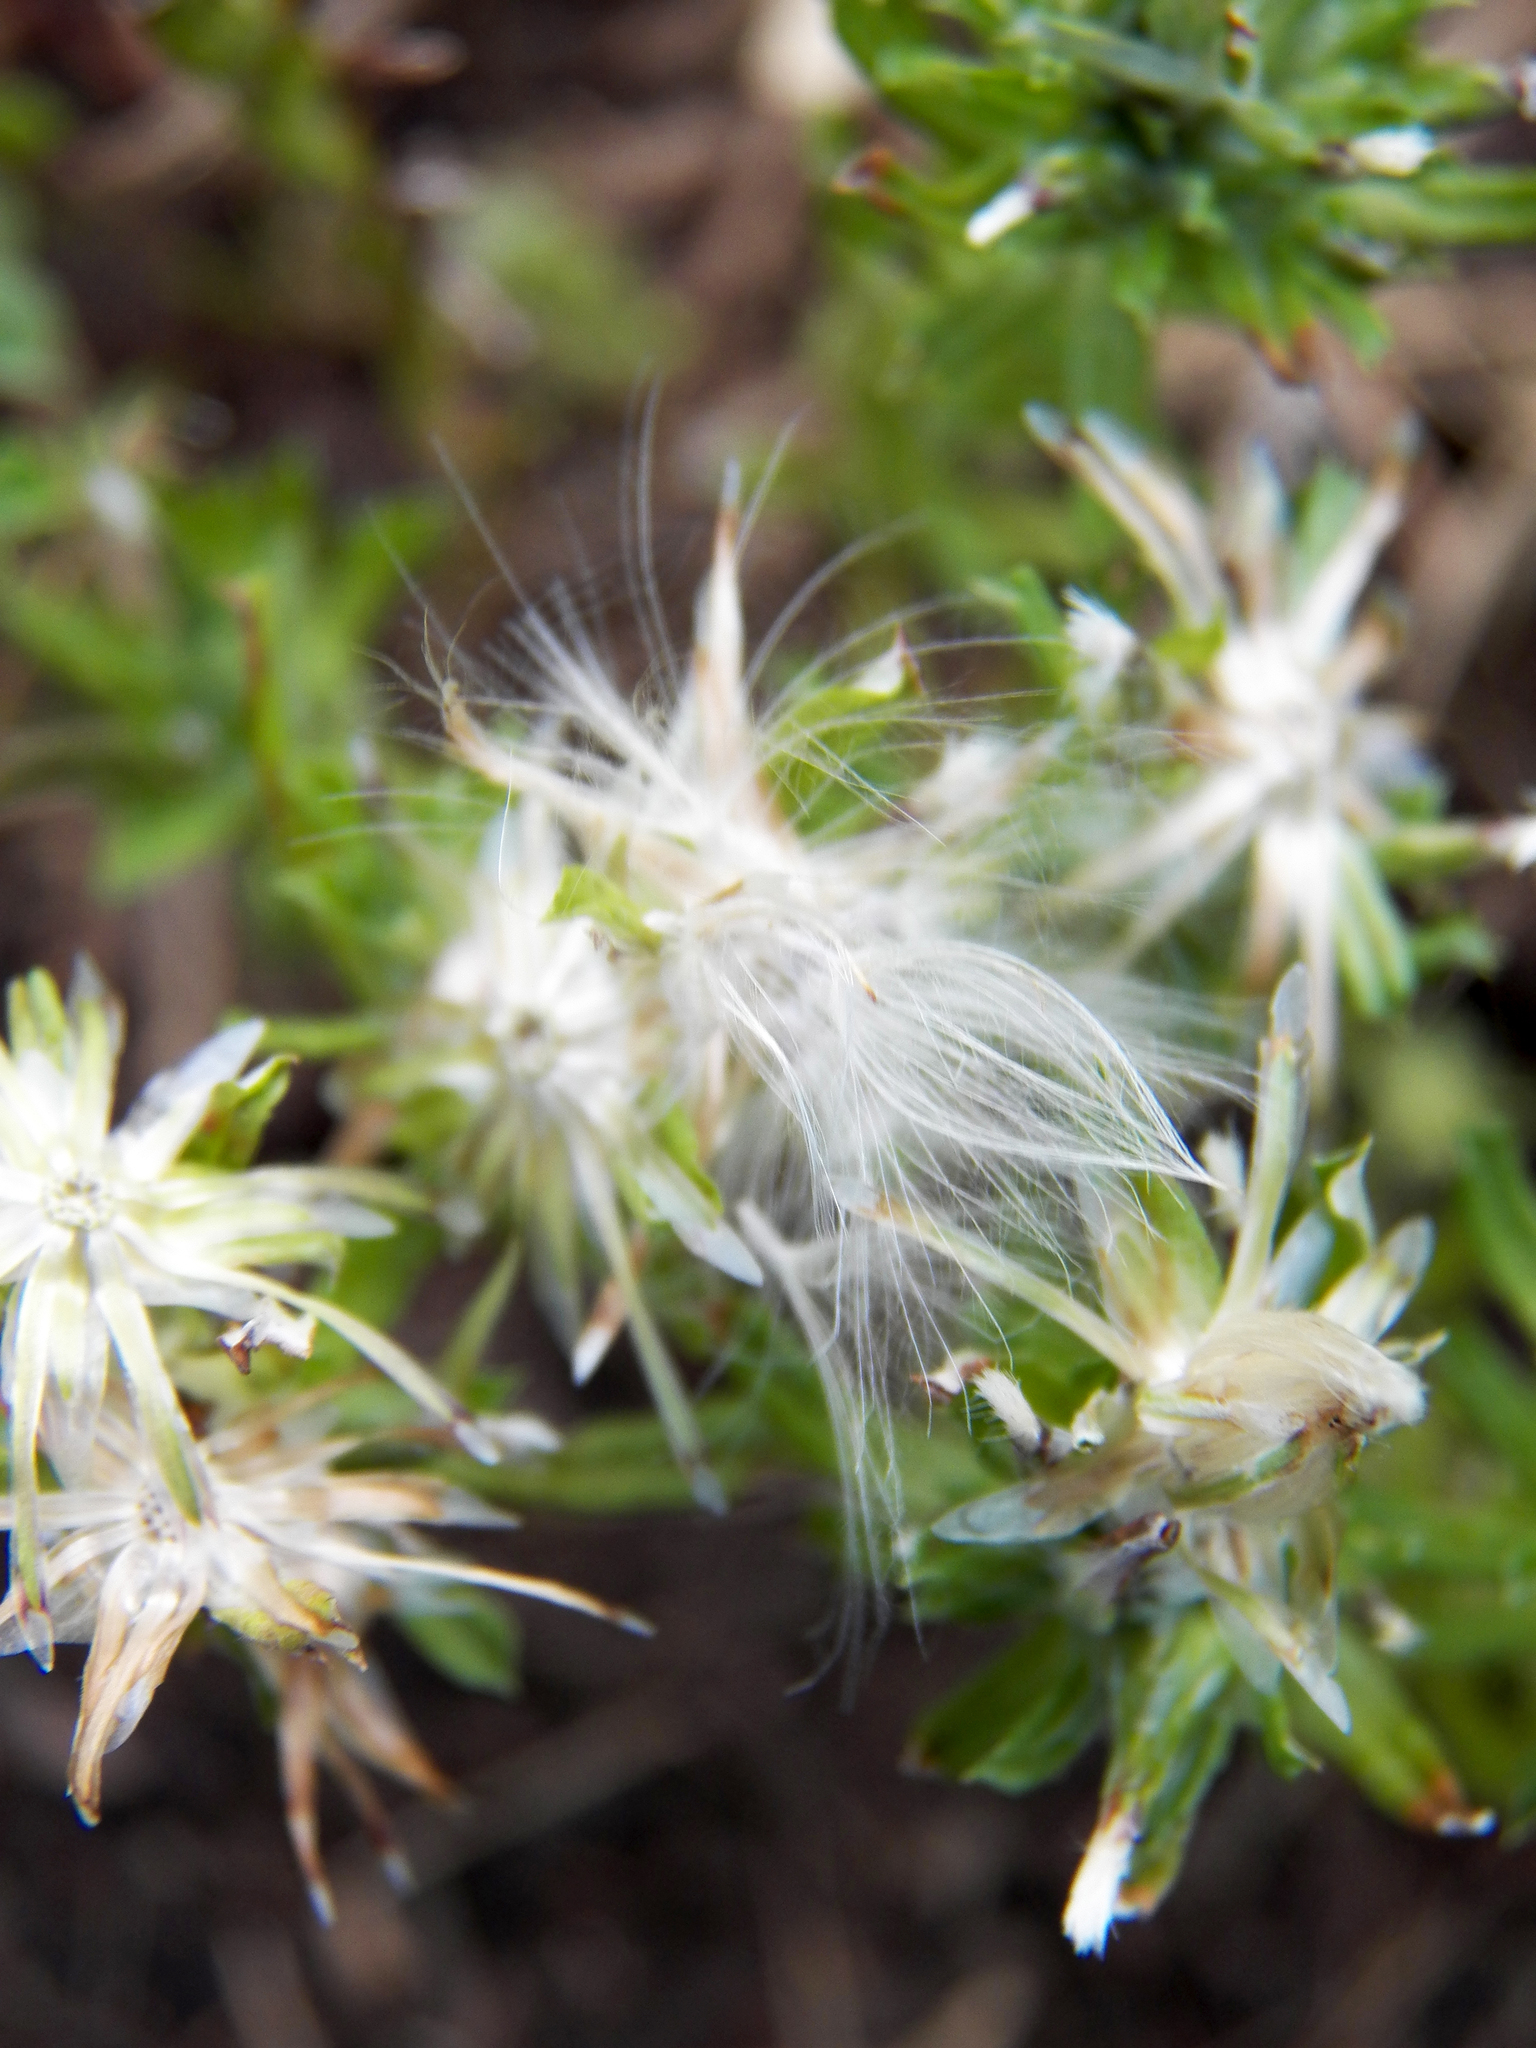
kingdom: Plantae
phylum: Tracheophyta
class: Magnoliopsida
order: Asterales
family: Asteraceae
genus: Facelis
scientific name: Facelis retusa
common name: Annual trampweed
